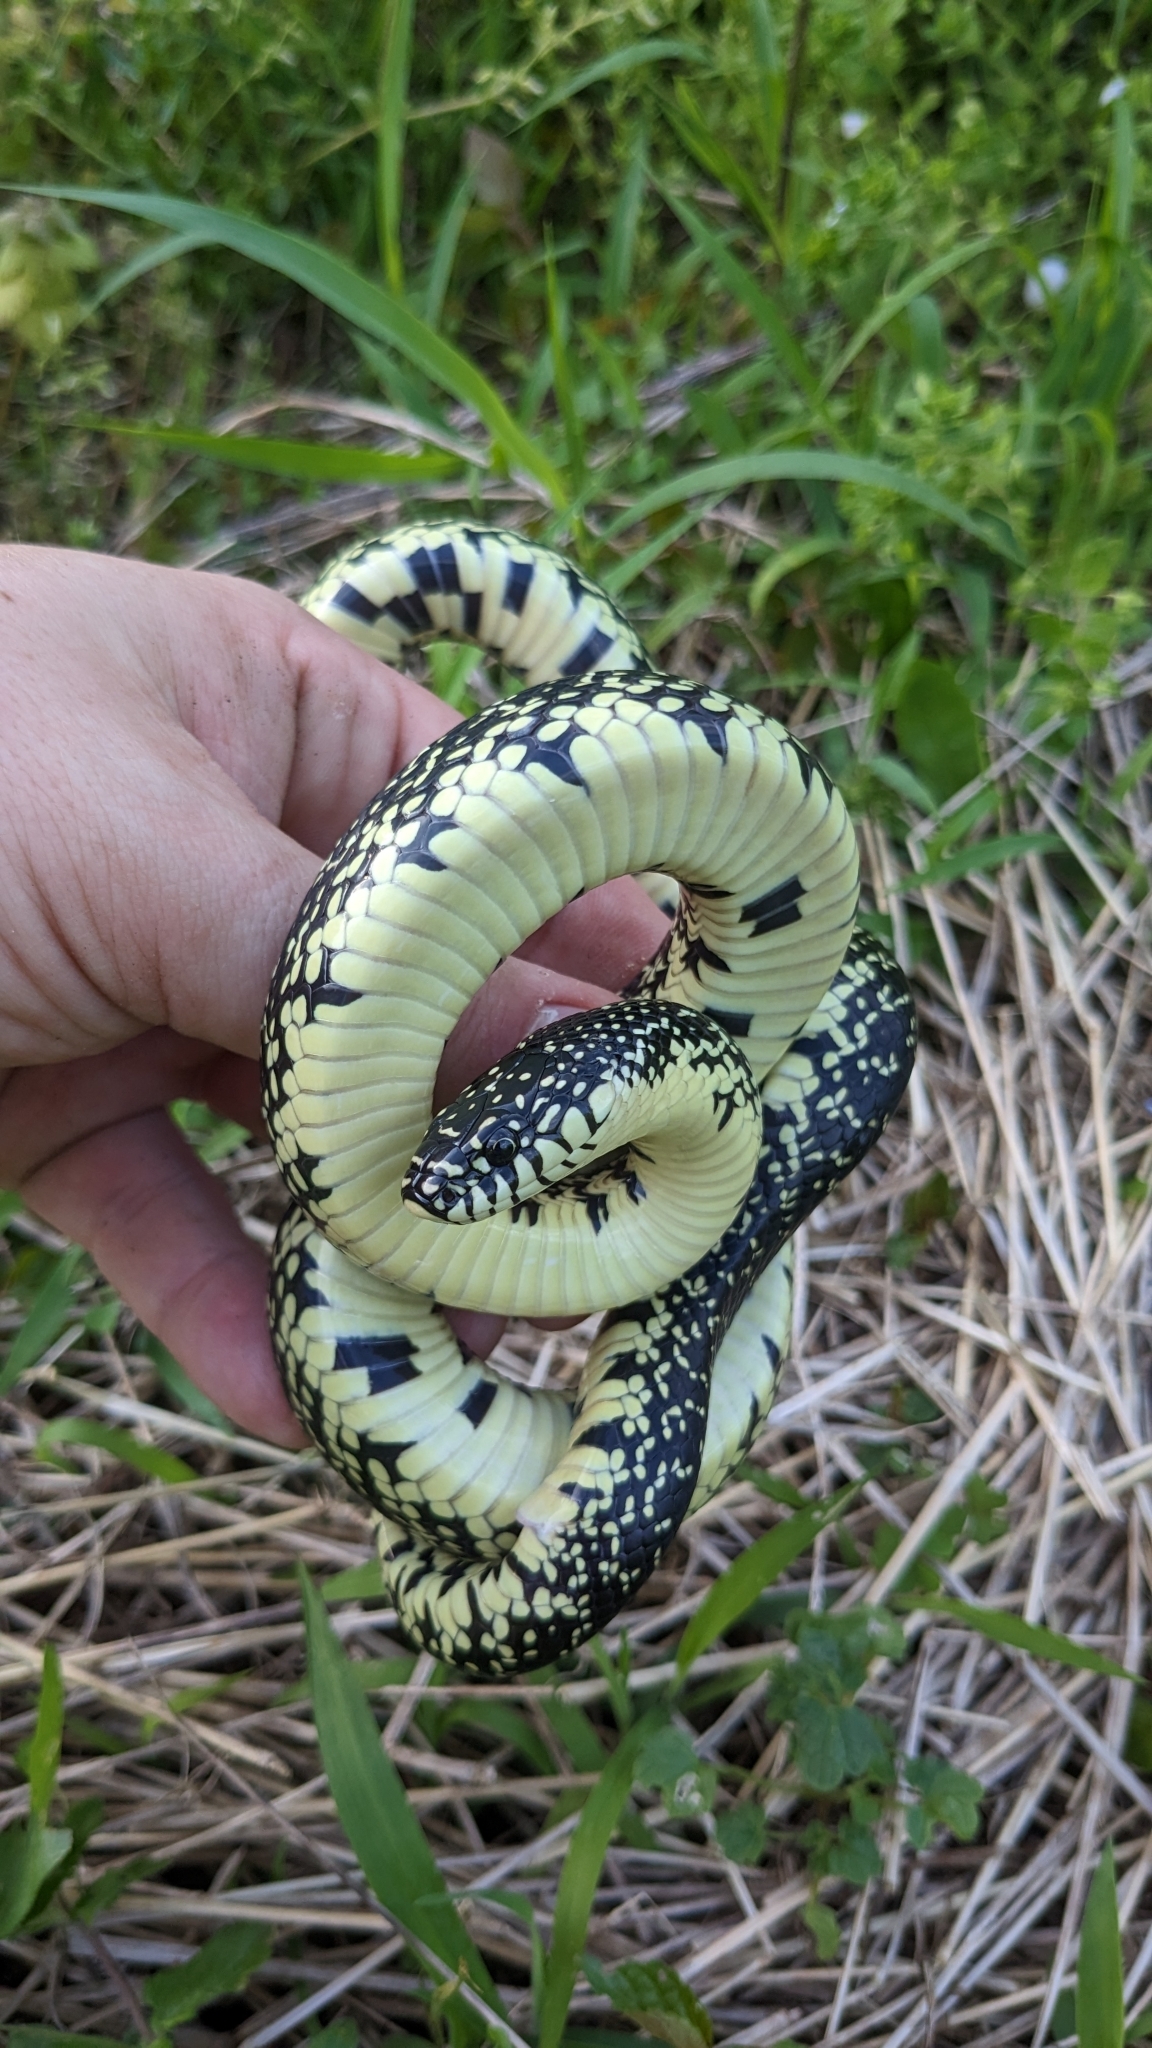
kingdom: Animalia
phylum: Chordata
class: Squamata
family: Colubridae
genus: Lampropeltis
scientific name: Lampropeltis nigra
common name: Black kingsnake
